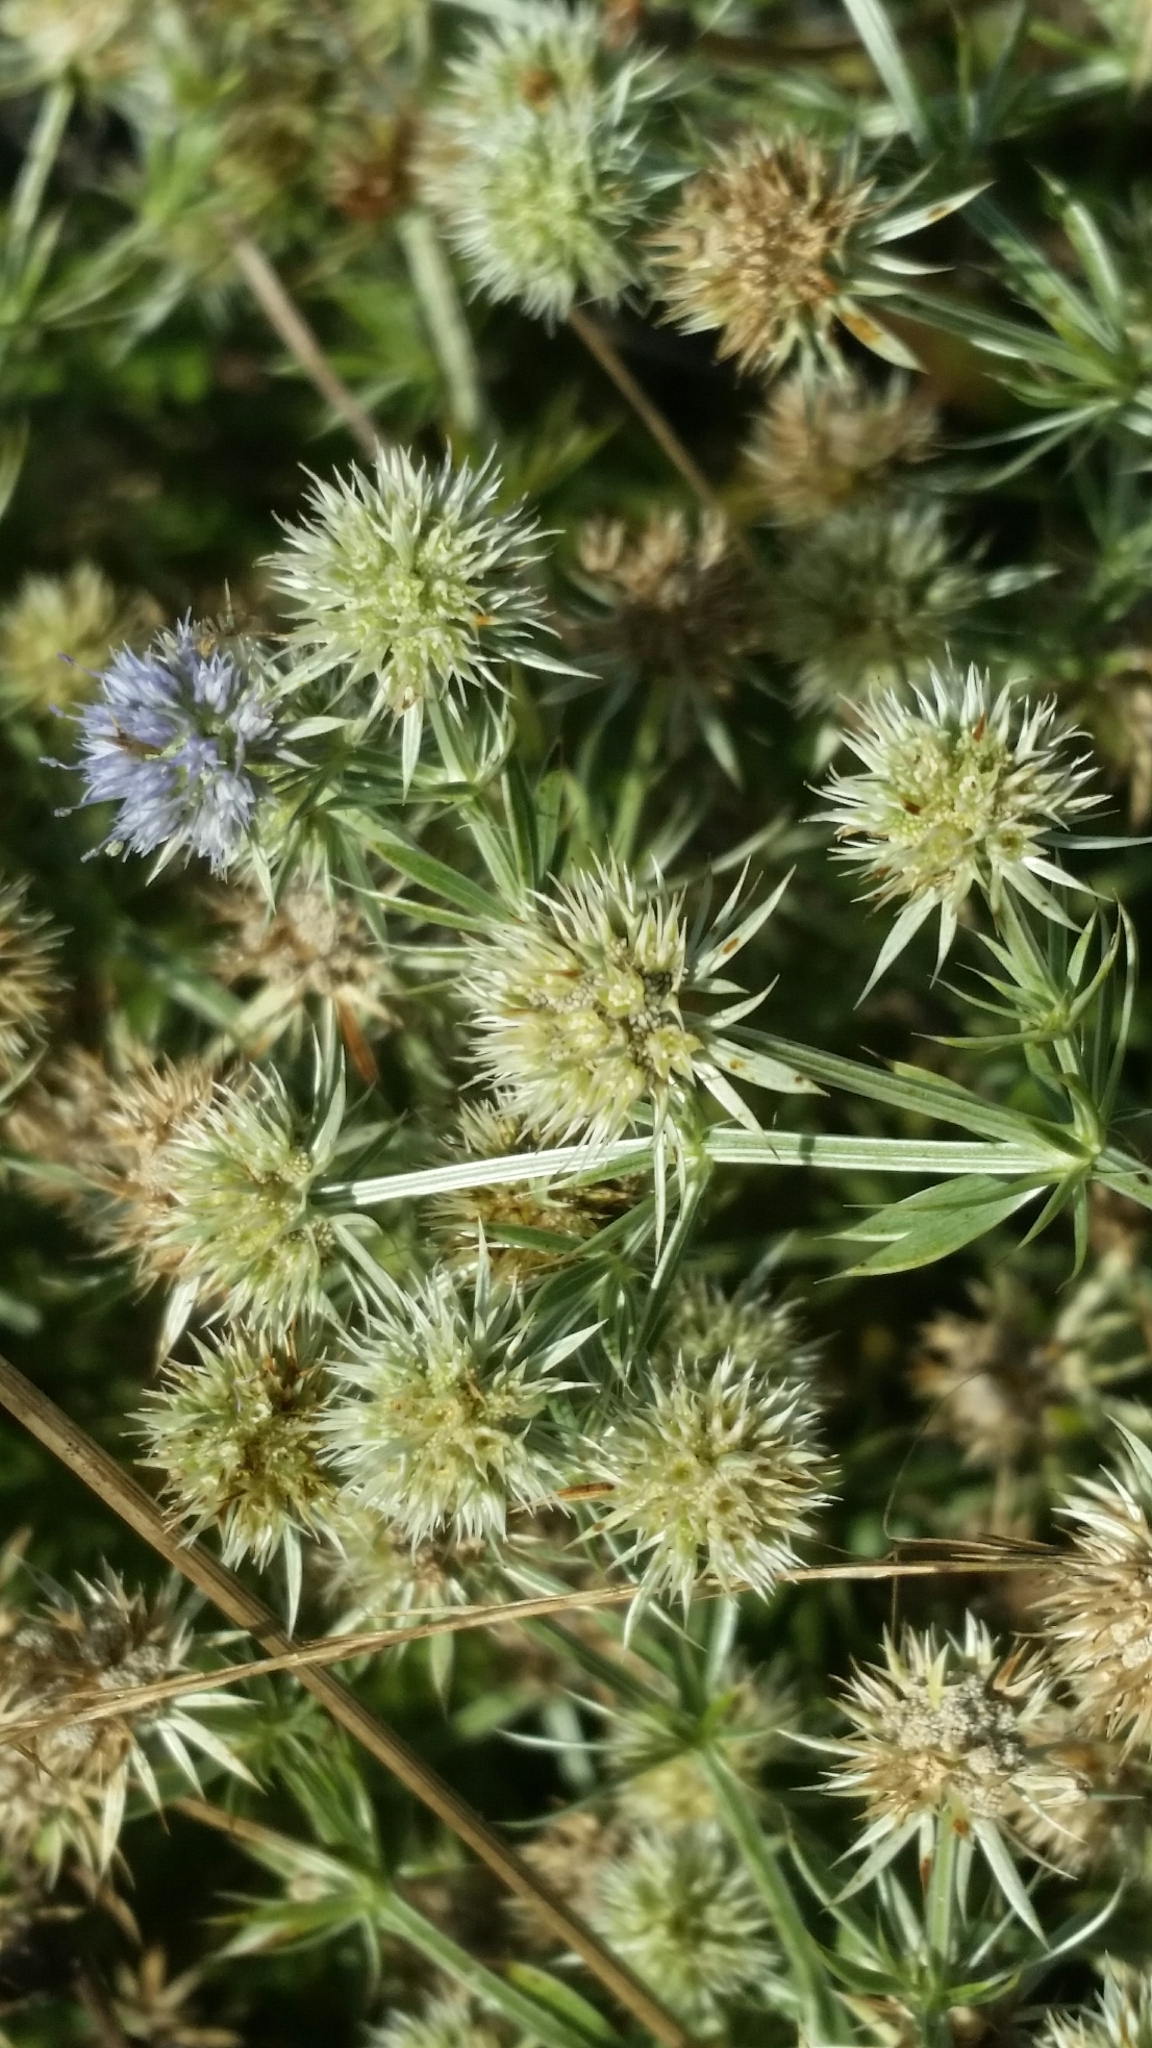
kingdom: Plantae
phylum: Tracheophyta
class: Magnoliopsida
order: Apiales
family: Apiaceae
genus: Eryngium
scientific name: Eryngium aromaticum
